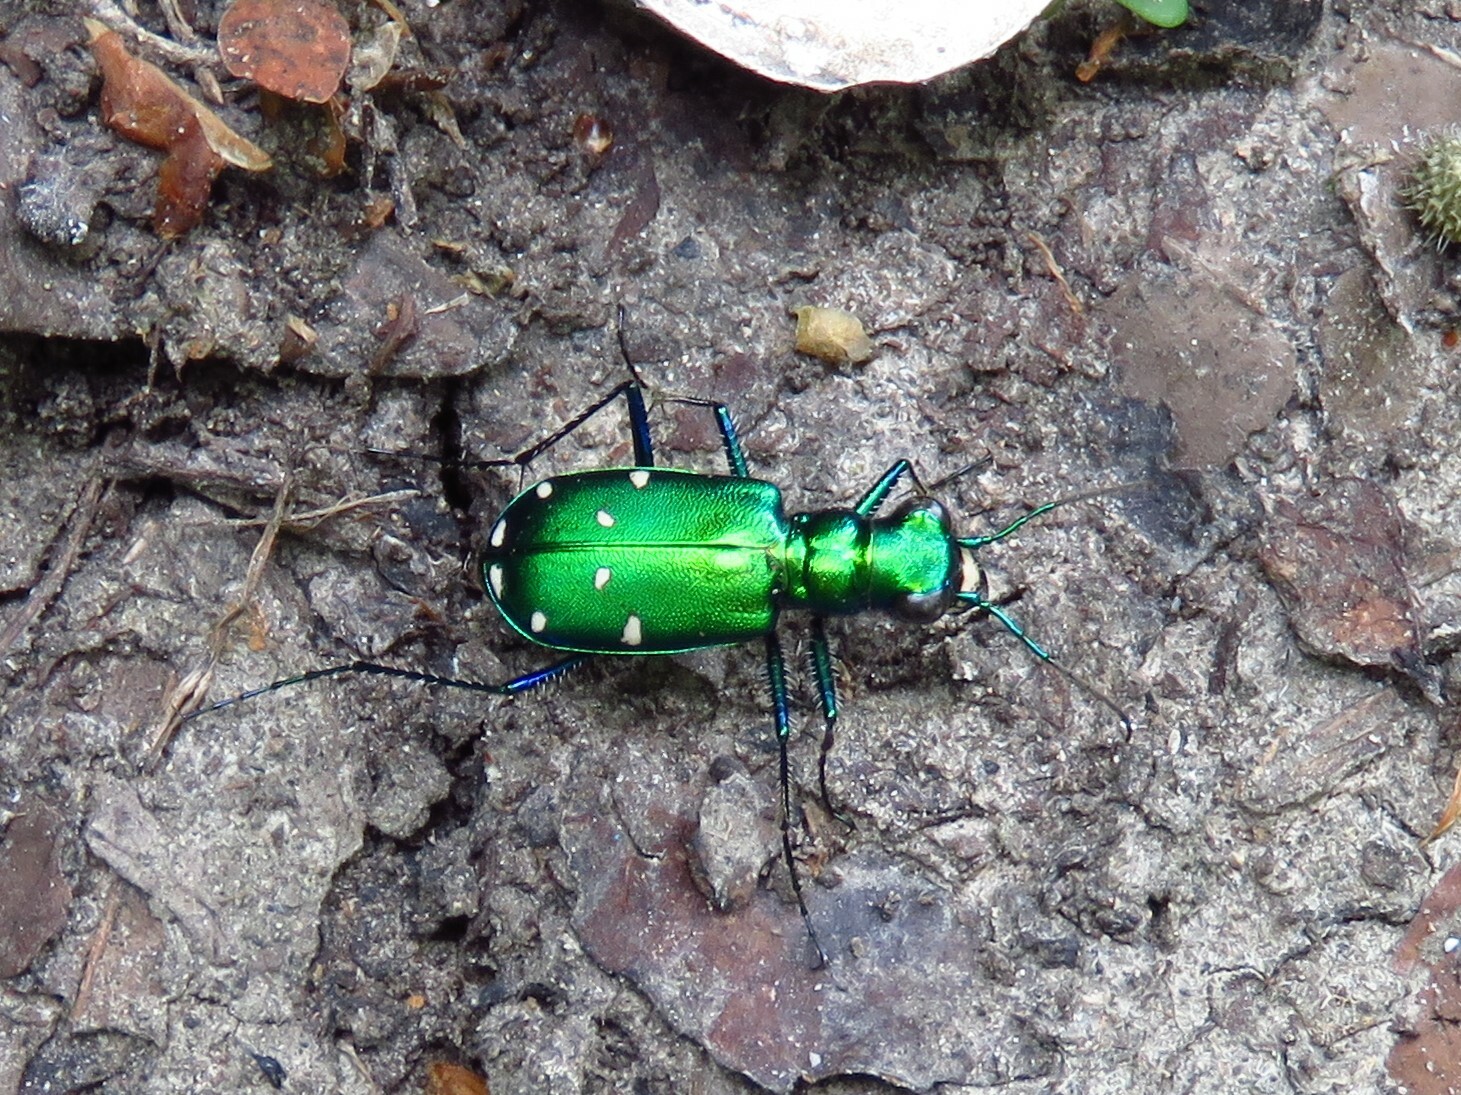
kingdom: Animalia
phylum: Arthropoda
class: Insecta
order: Coleoptera
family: Carabidae
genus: Cicindela
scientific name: Cicindela sexguttata
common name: Six-spotted tiger beetle
